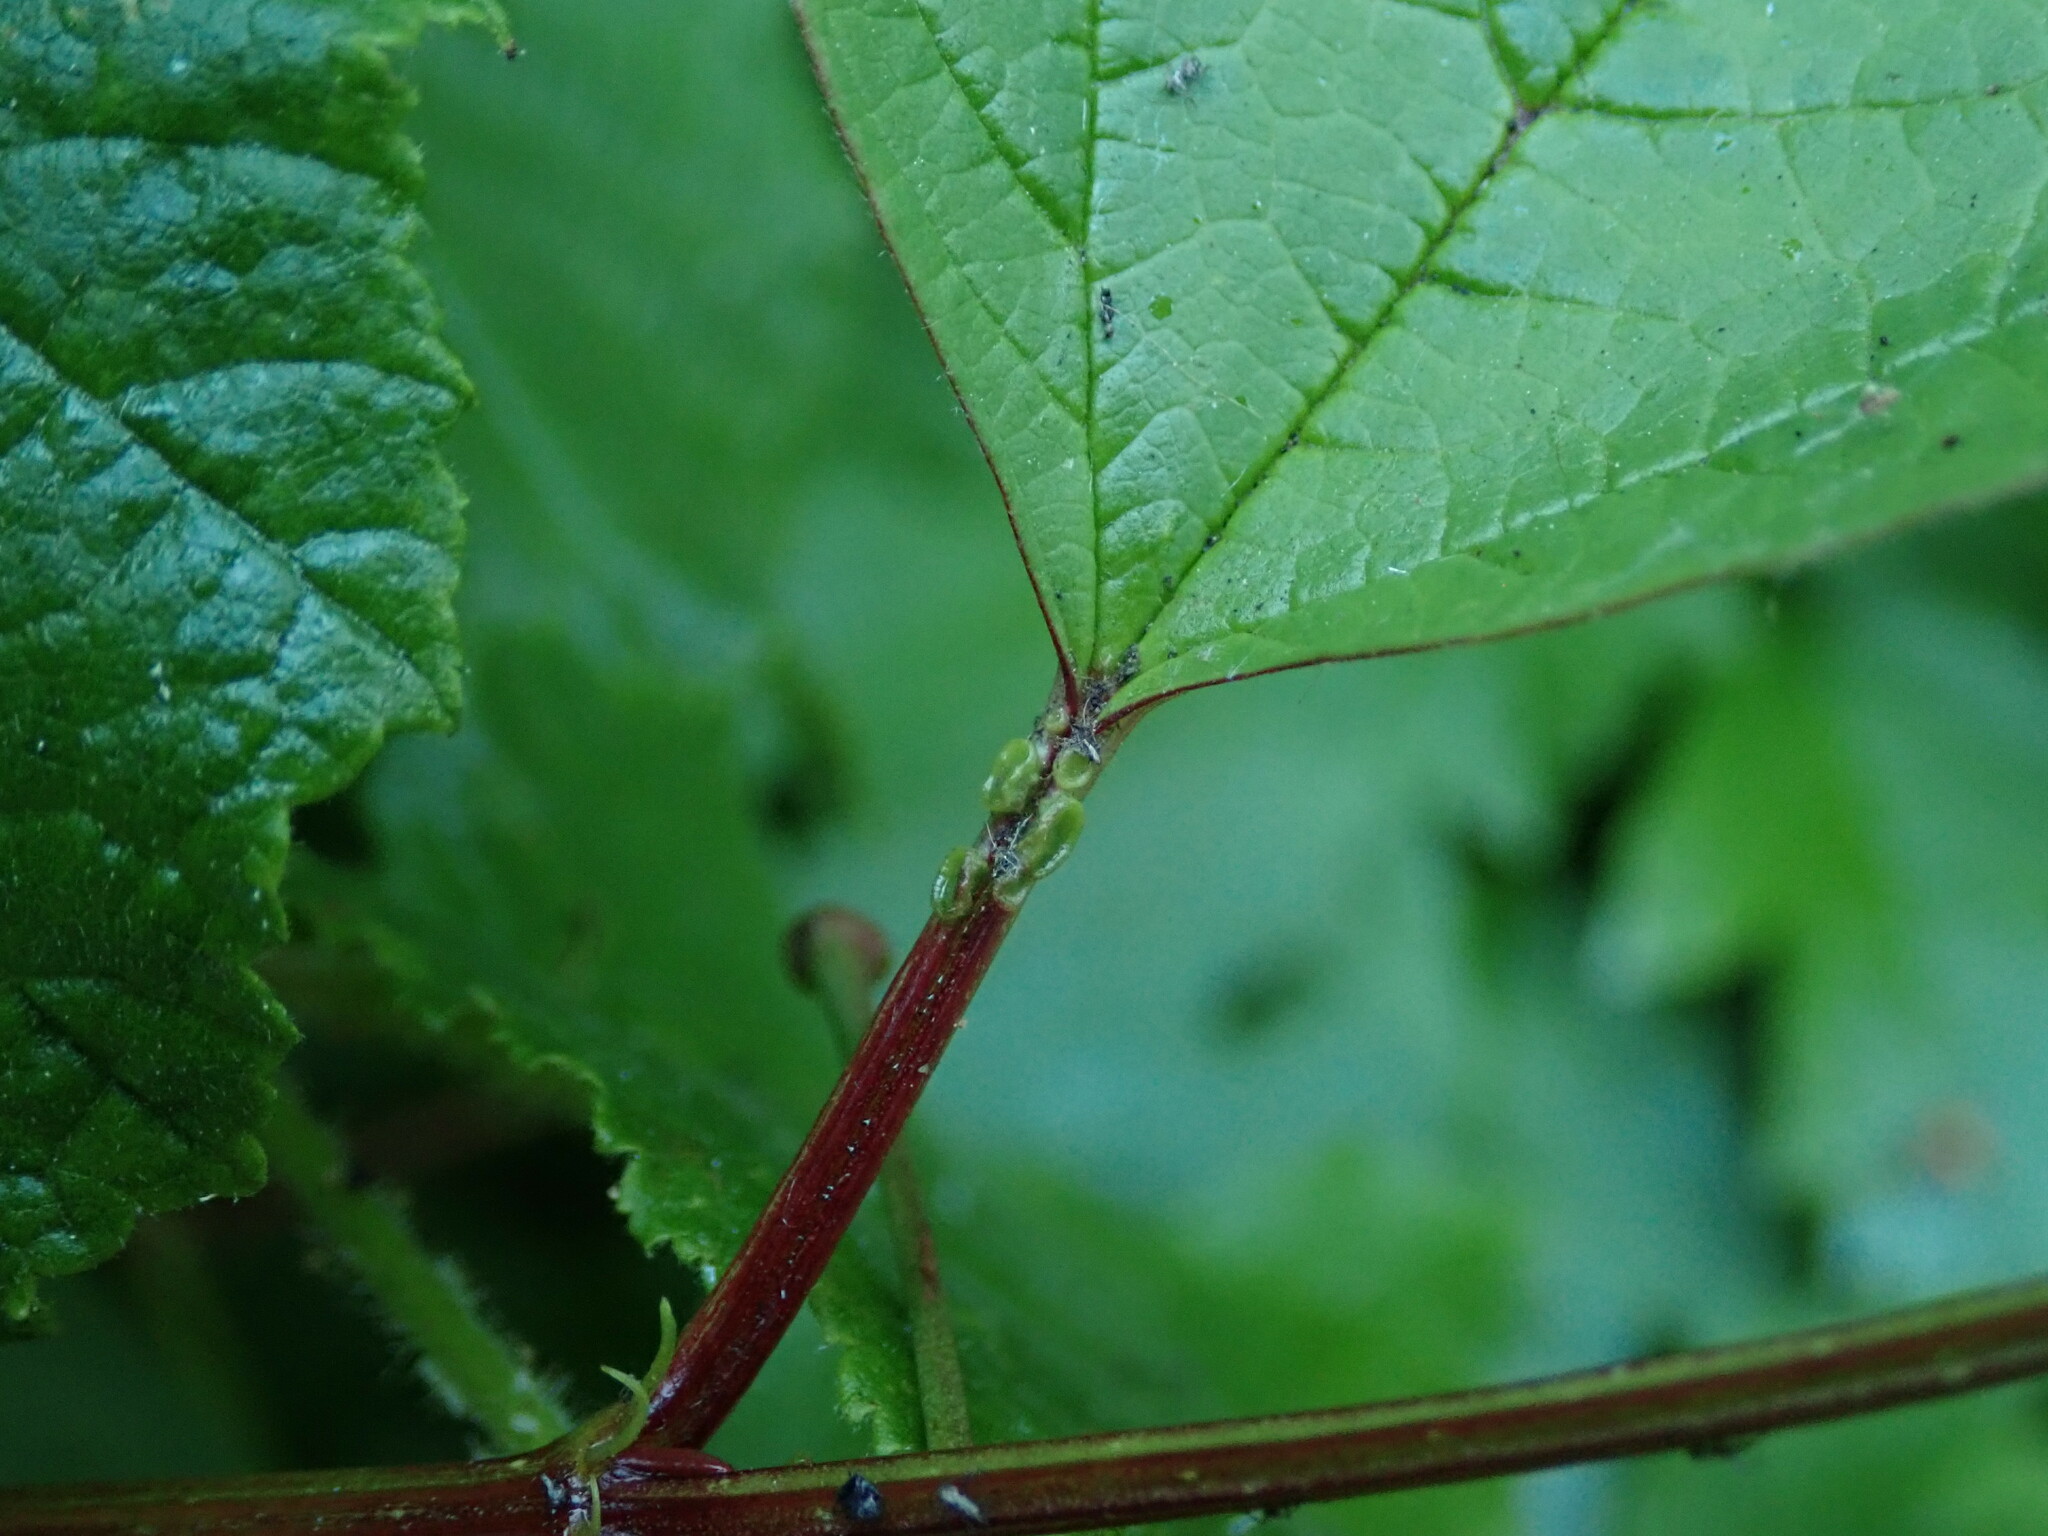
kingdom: Plantae
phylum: Tracheophyta
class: Magnoliopsida
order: Dipsacales
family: Viburnaceae
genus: Viburnum
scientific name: Viburnum opulus
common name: Guelder-rose
